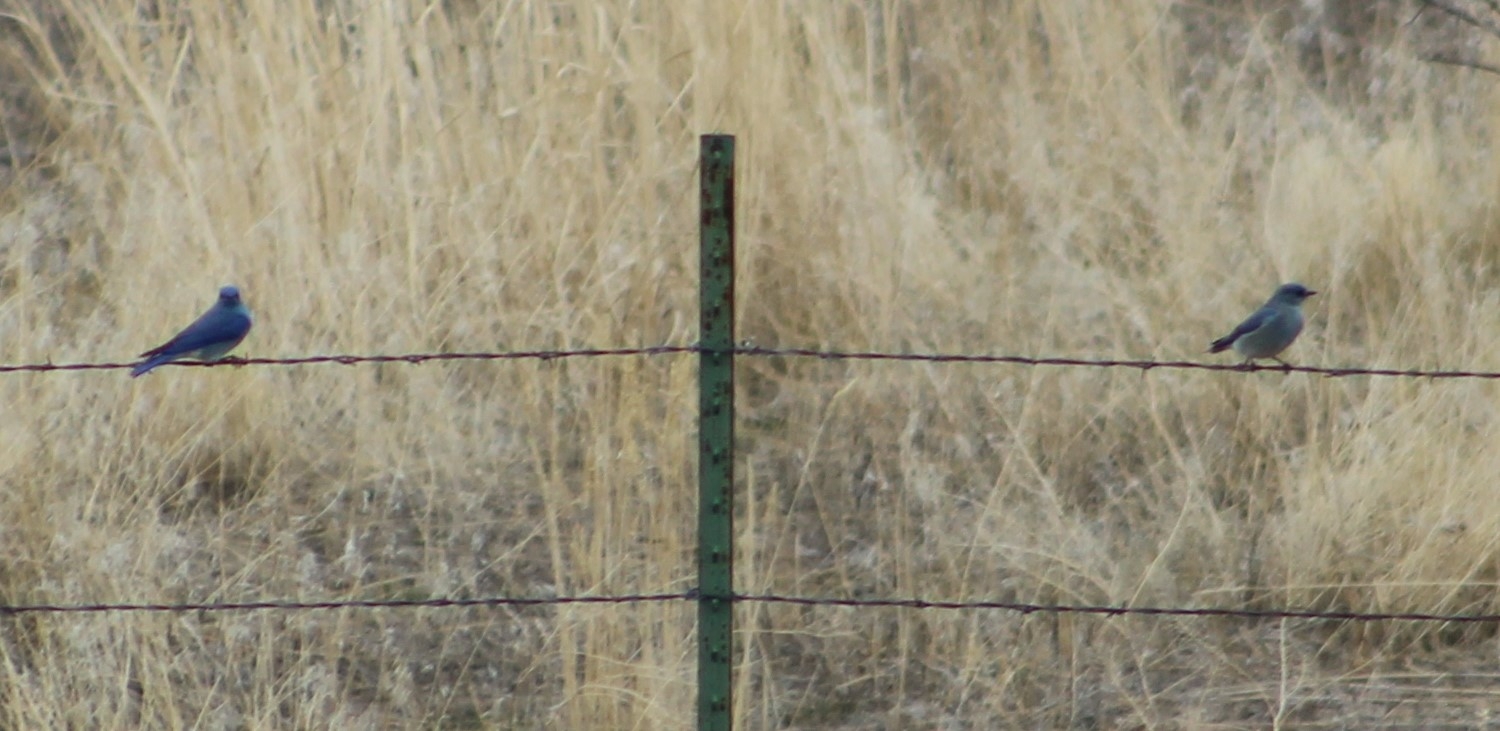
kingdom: Animalia
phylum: Chordata
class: Aves
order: Passeriformes
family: Turdidae
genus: Sialia
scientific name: Sialia currucoides
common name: Mountain bluebird
